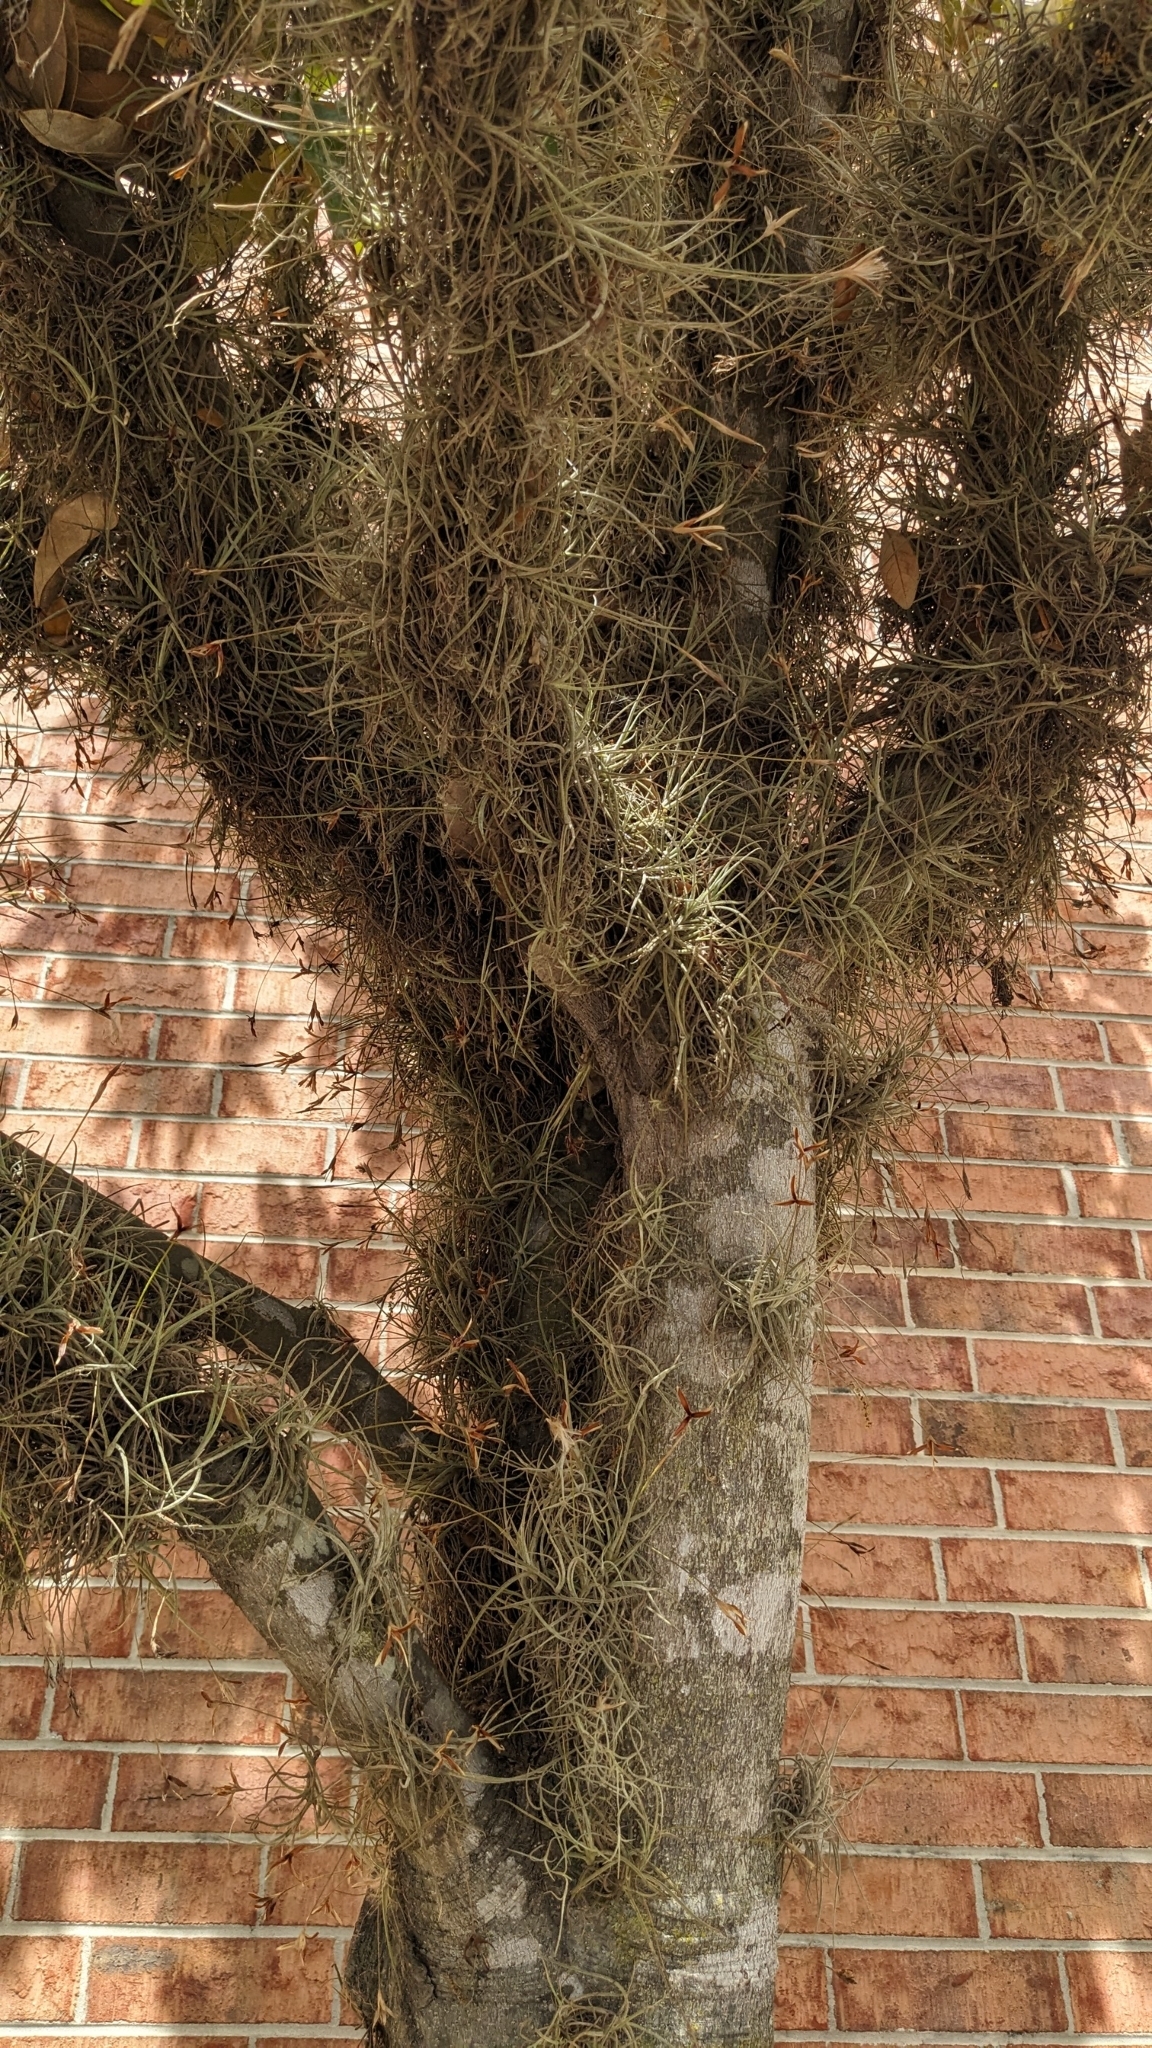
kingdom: Plantae
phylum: Tracheophyta
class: Liliopsida
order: Poales
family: Bromeliaceae
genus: Tillandsia
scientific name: Tillandsia recurvata
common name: Small ballmoss
